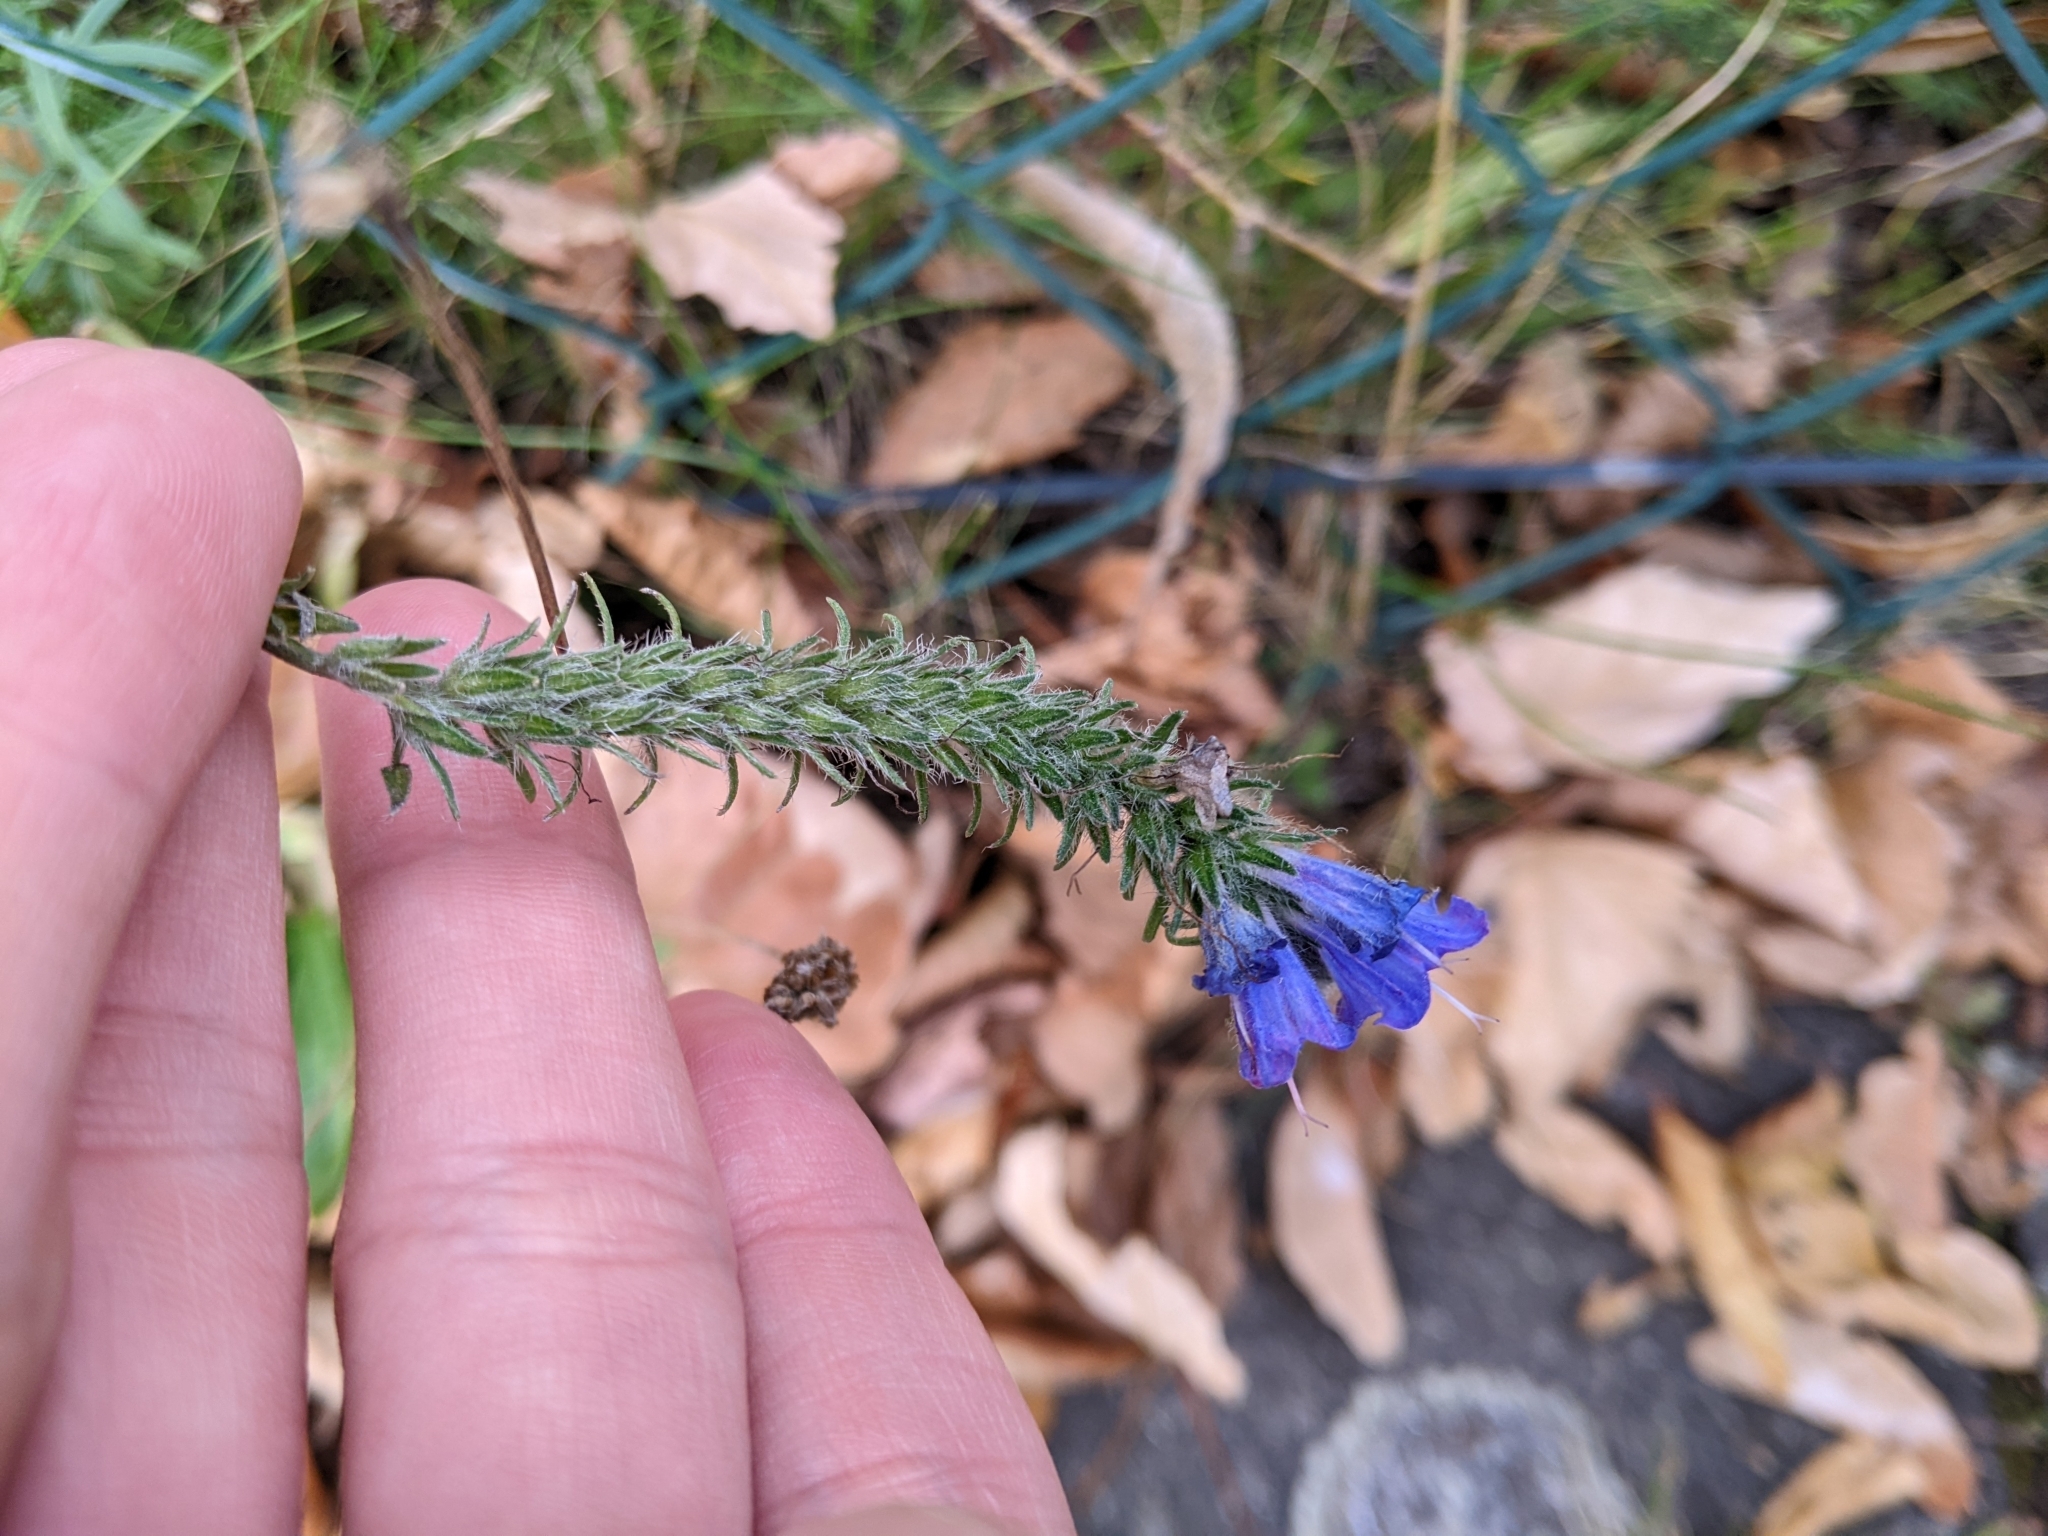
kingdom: Plantae
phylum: Tracheophyta
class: Magnoliopsida
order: Boraginales
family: Boraginaceae
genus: Echium
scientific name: Echium vulgare
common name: Common viper's bugloss
